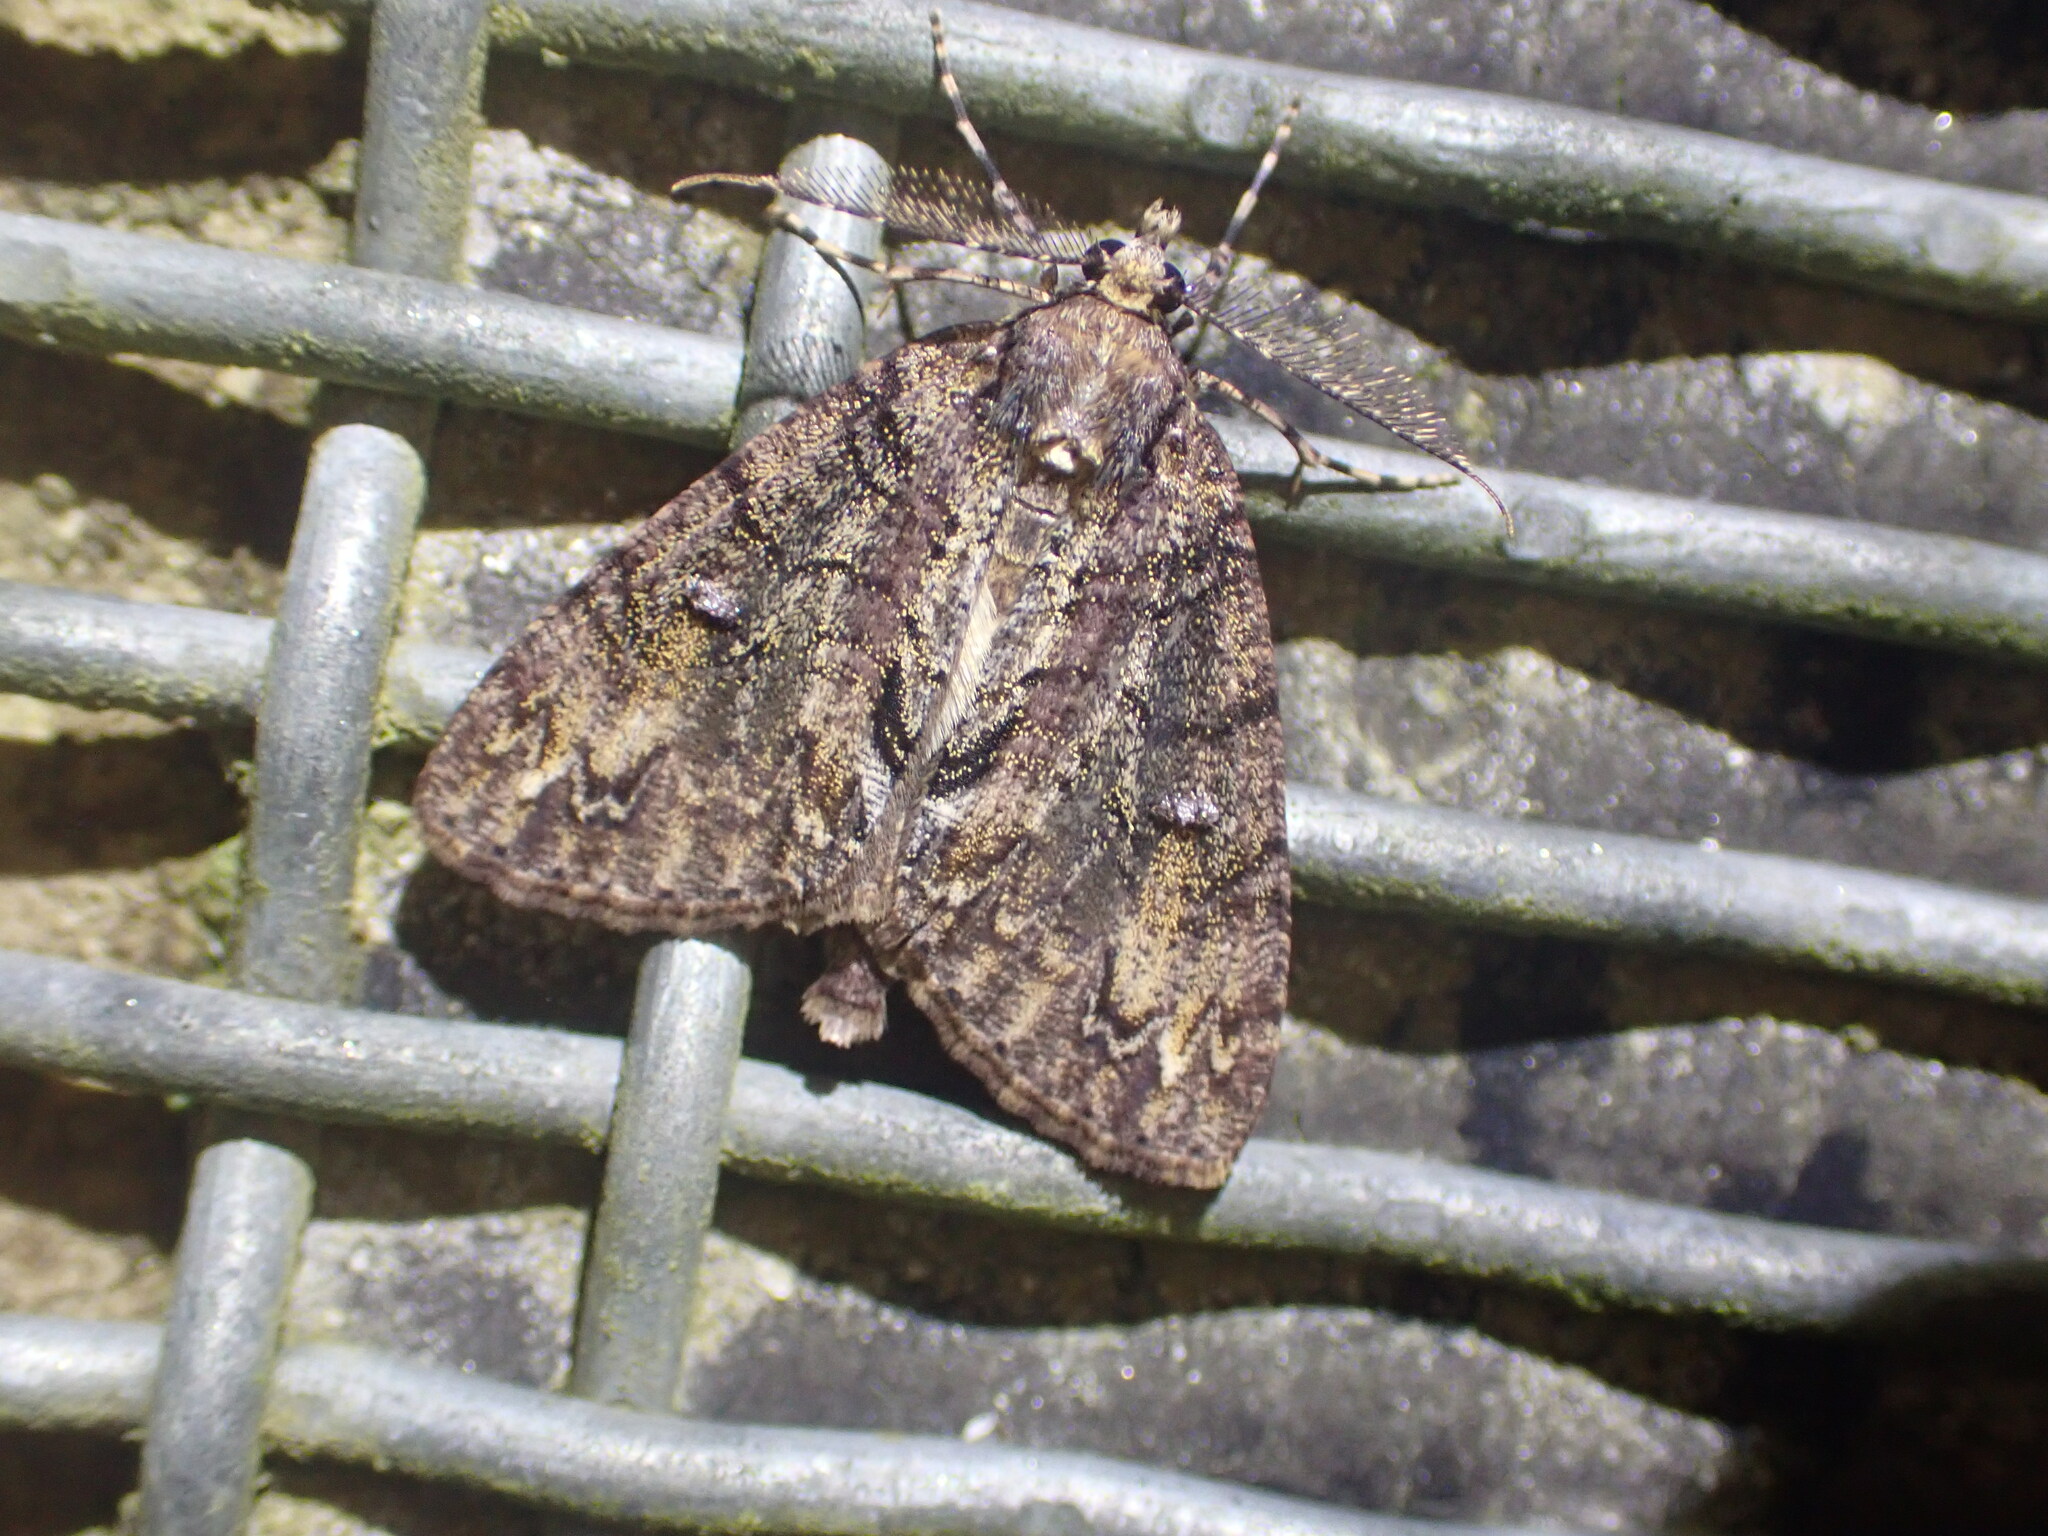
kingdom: Animalia
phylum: Arthropoda
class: Insecta
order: Lepidoptera
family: Geometridae
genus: Pseudocoremia
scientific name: Pseudocoremia suavis
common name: Common forest looper
